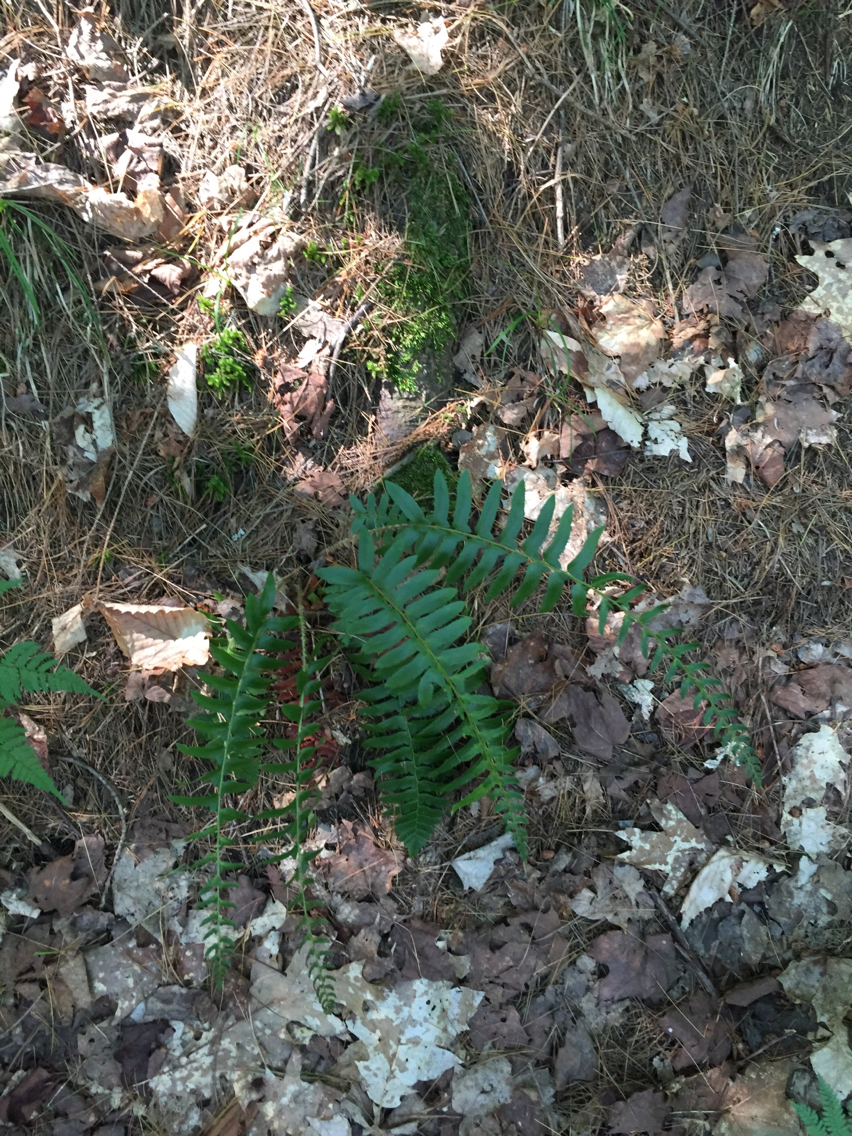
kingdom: Plantae
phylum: Tracheophyta
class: Polypodiopsida
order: Polypodiales
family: Dryopteridaceae
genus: Polystichum
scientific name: Polystichum acrostichoides
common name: Christmas fern
